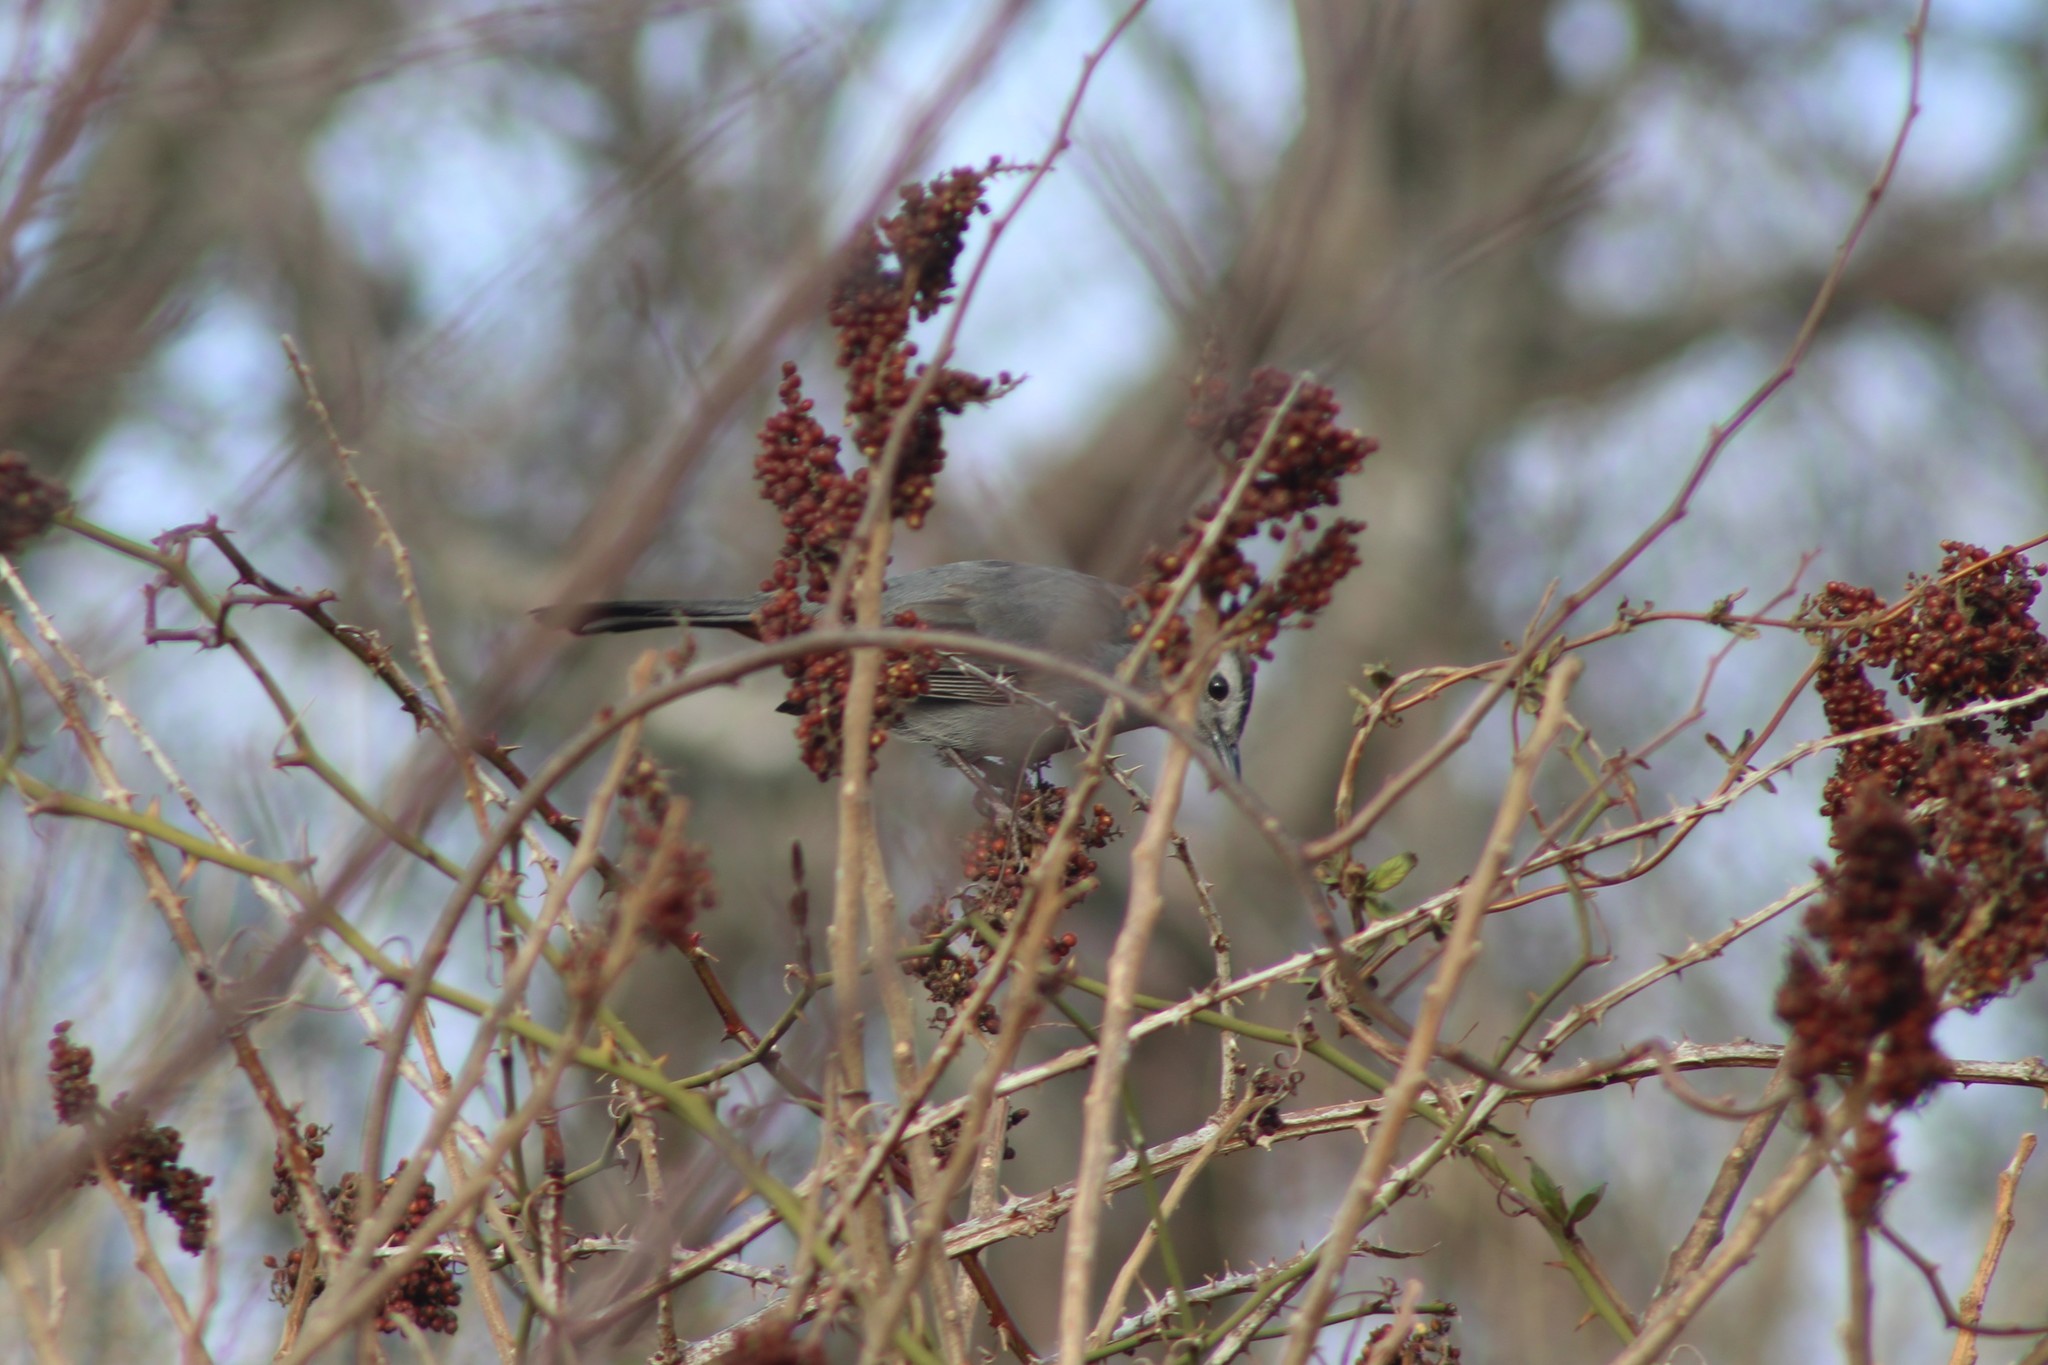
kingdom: Animalia
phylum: Chordata
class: Aves
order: Passeriformes
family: Mimidae
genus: Dumetella
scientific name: Dumetella carolinensis
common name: Gray catbird
